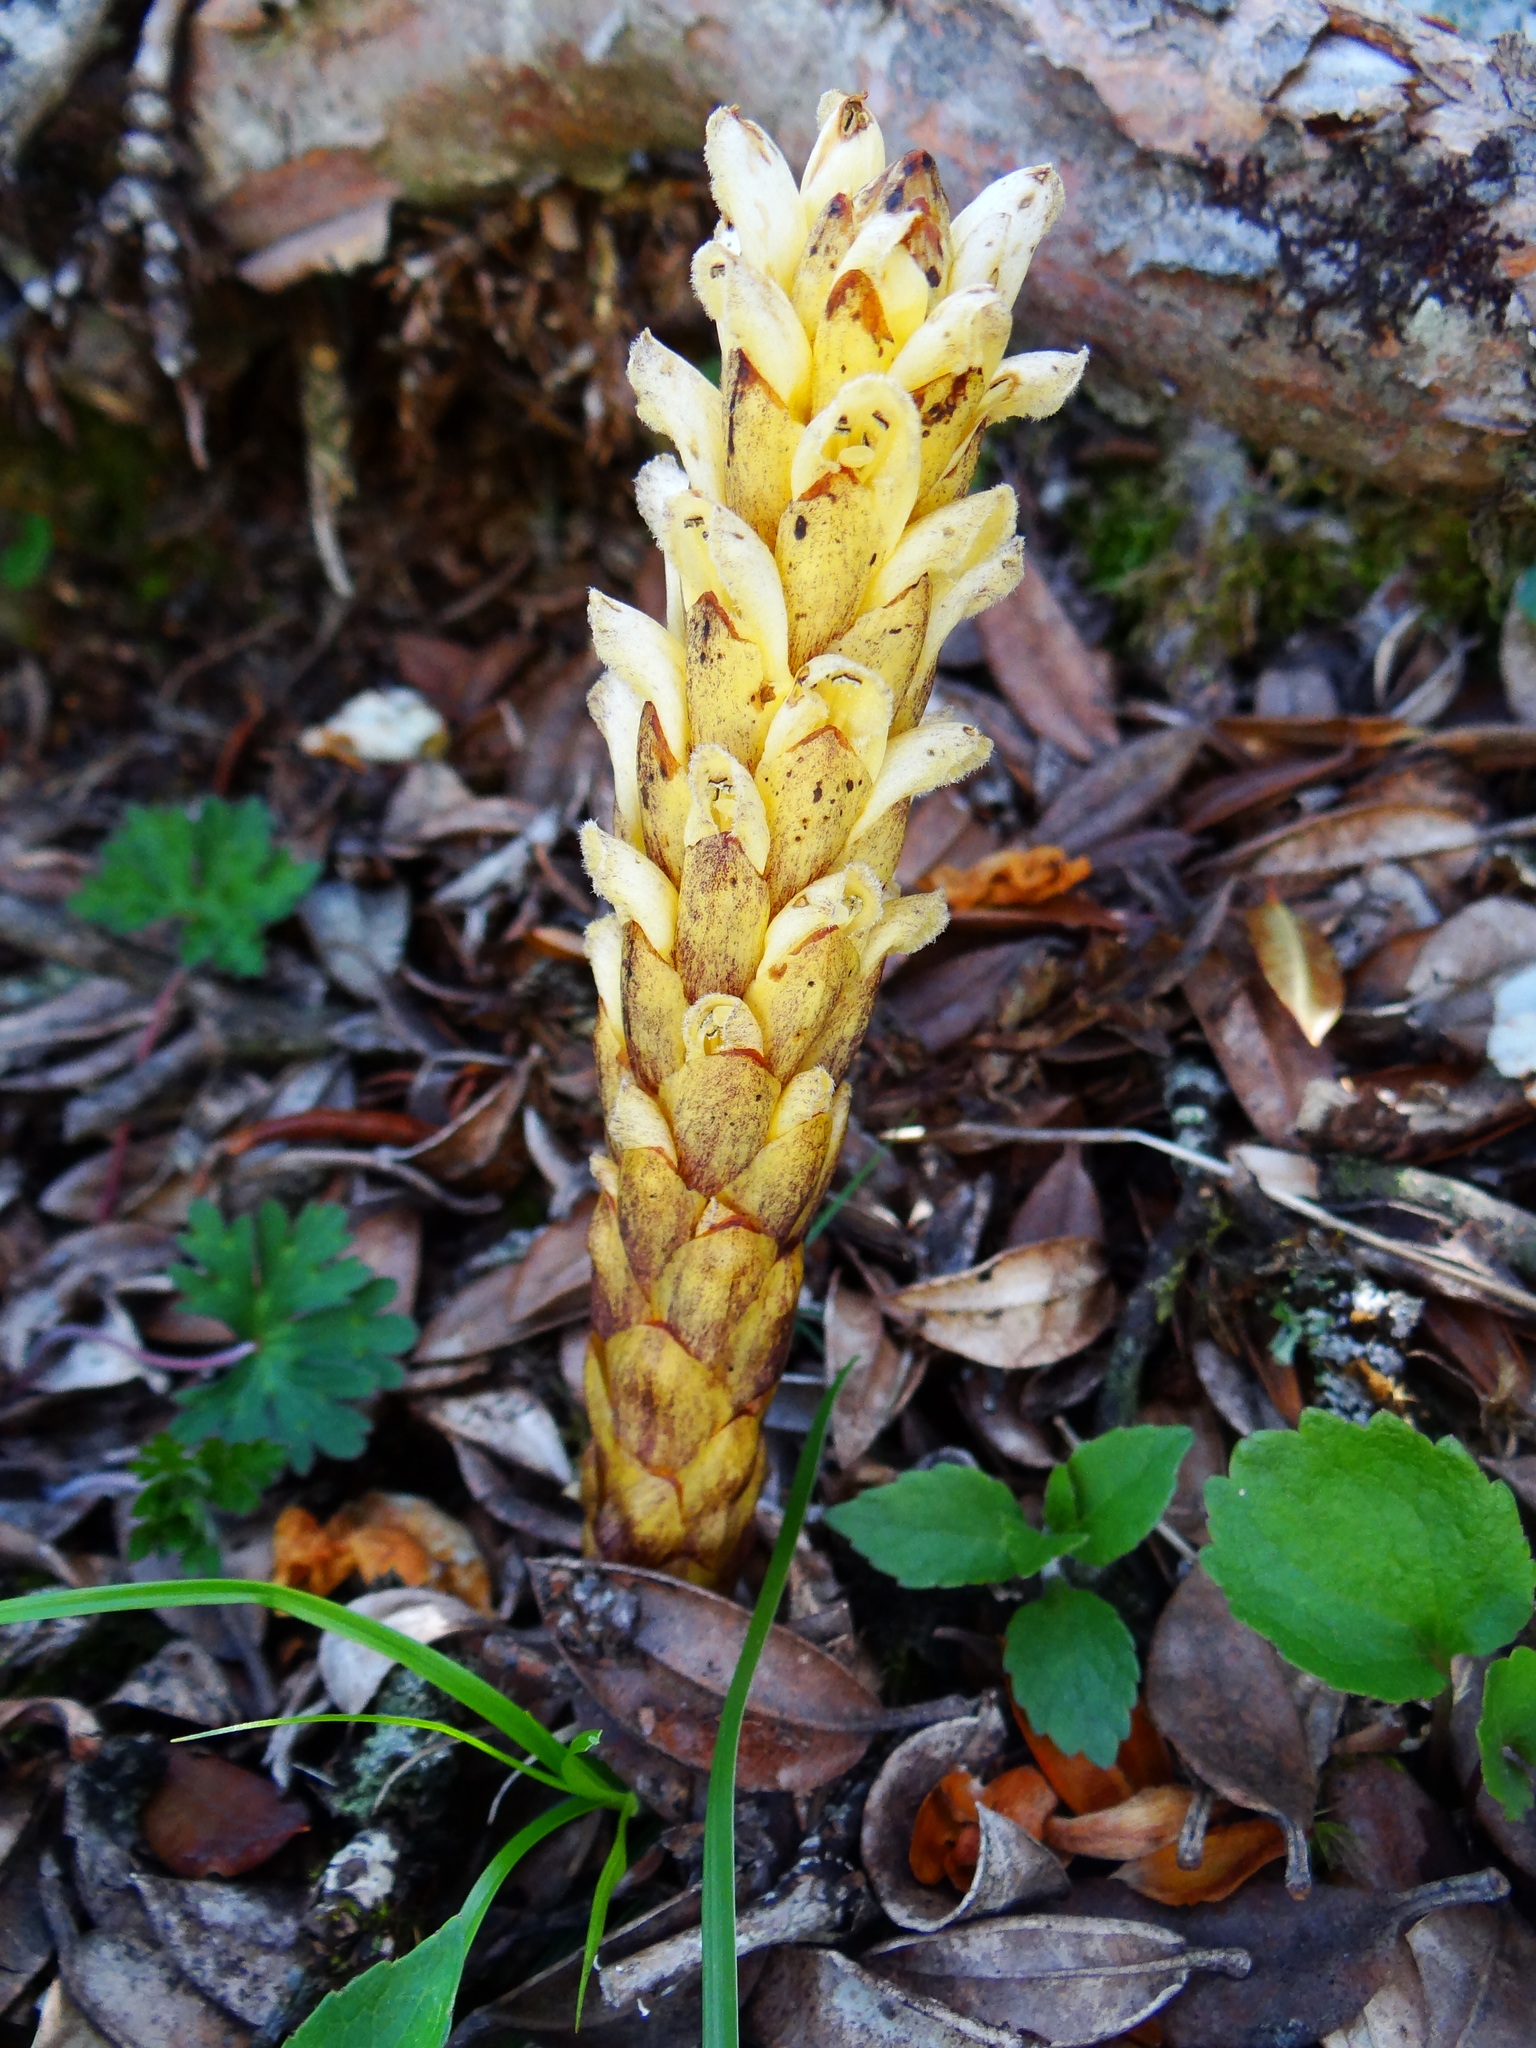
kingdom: Plantae
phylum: Tracheophyta
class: Magnoliopsida
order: Lamiales
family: Orobanchaceae
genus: Boschniakia
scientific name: Boschniakia himalaica
